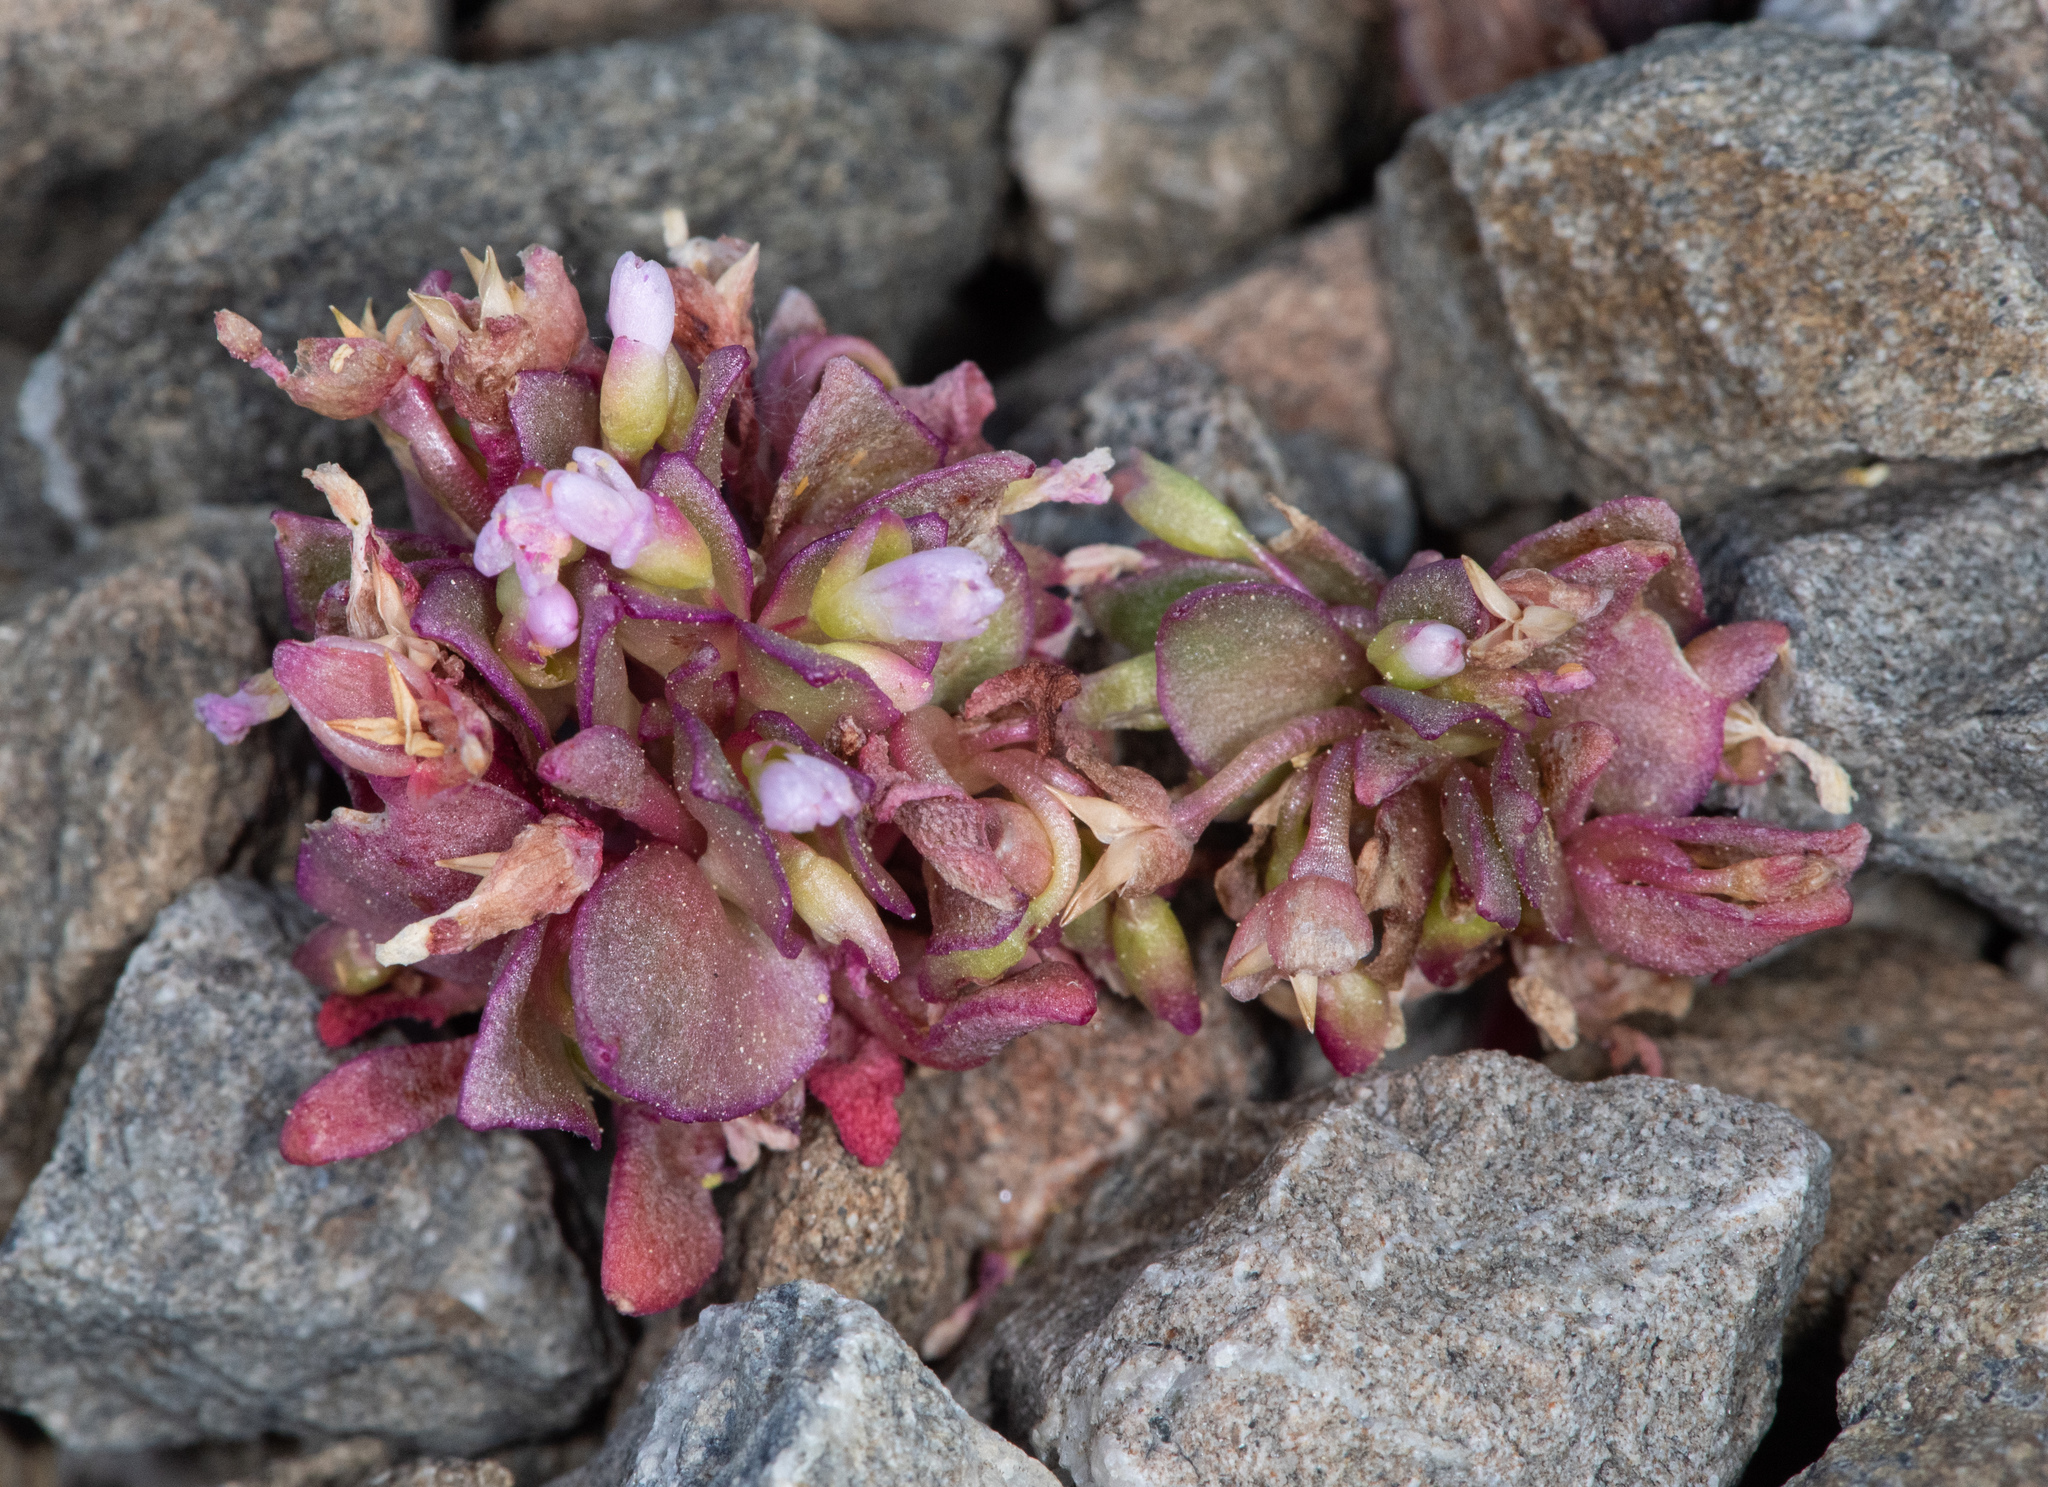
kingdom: Plantae
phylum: Tracheophyta
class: Magnoliopsida
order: Caryophyllales
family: Montiaceae
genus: Claytonia
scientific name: Claytonia saxosa
